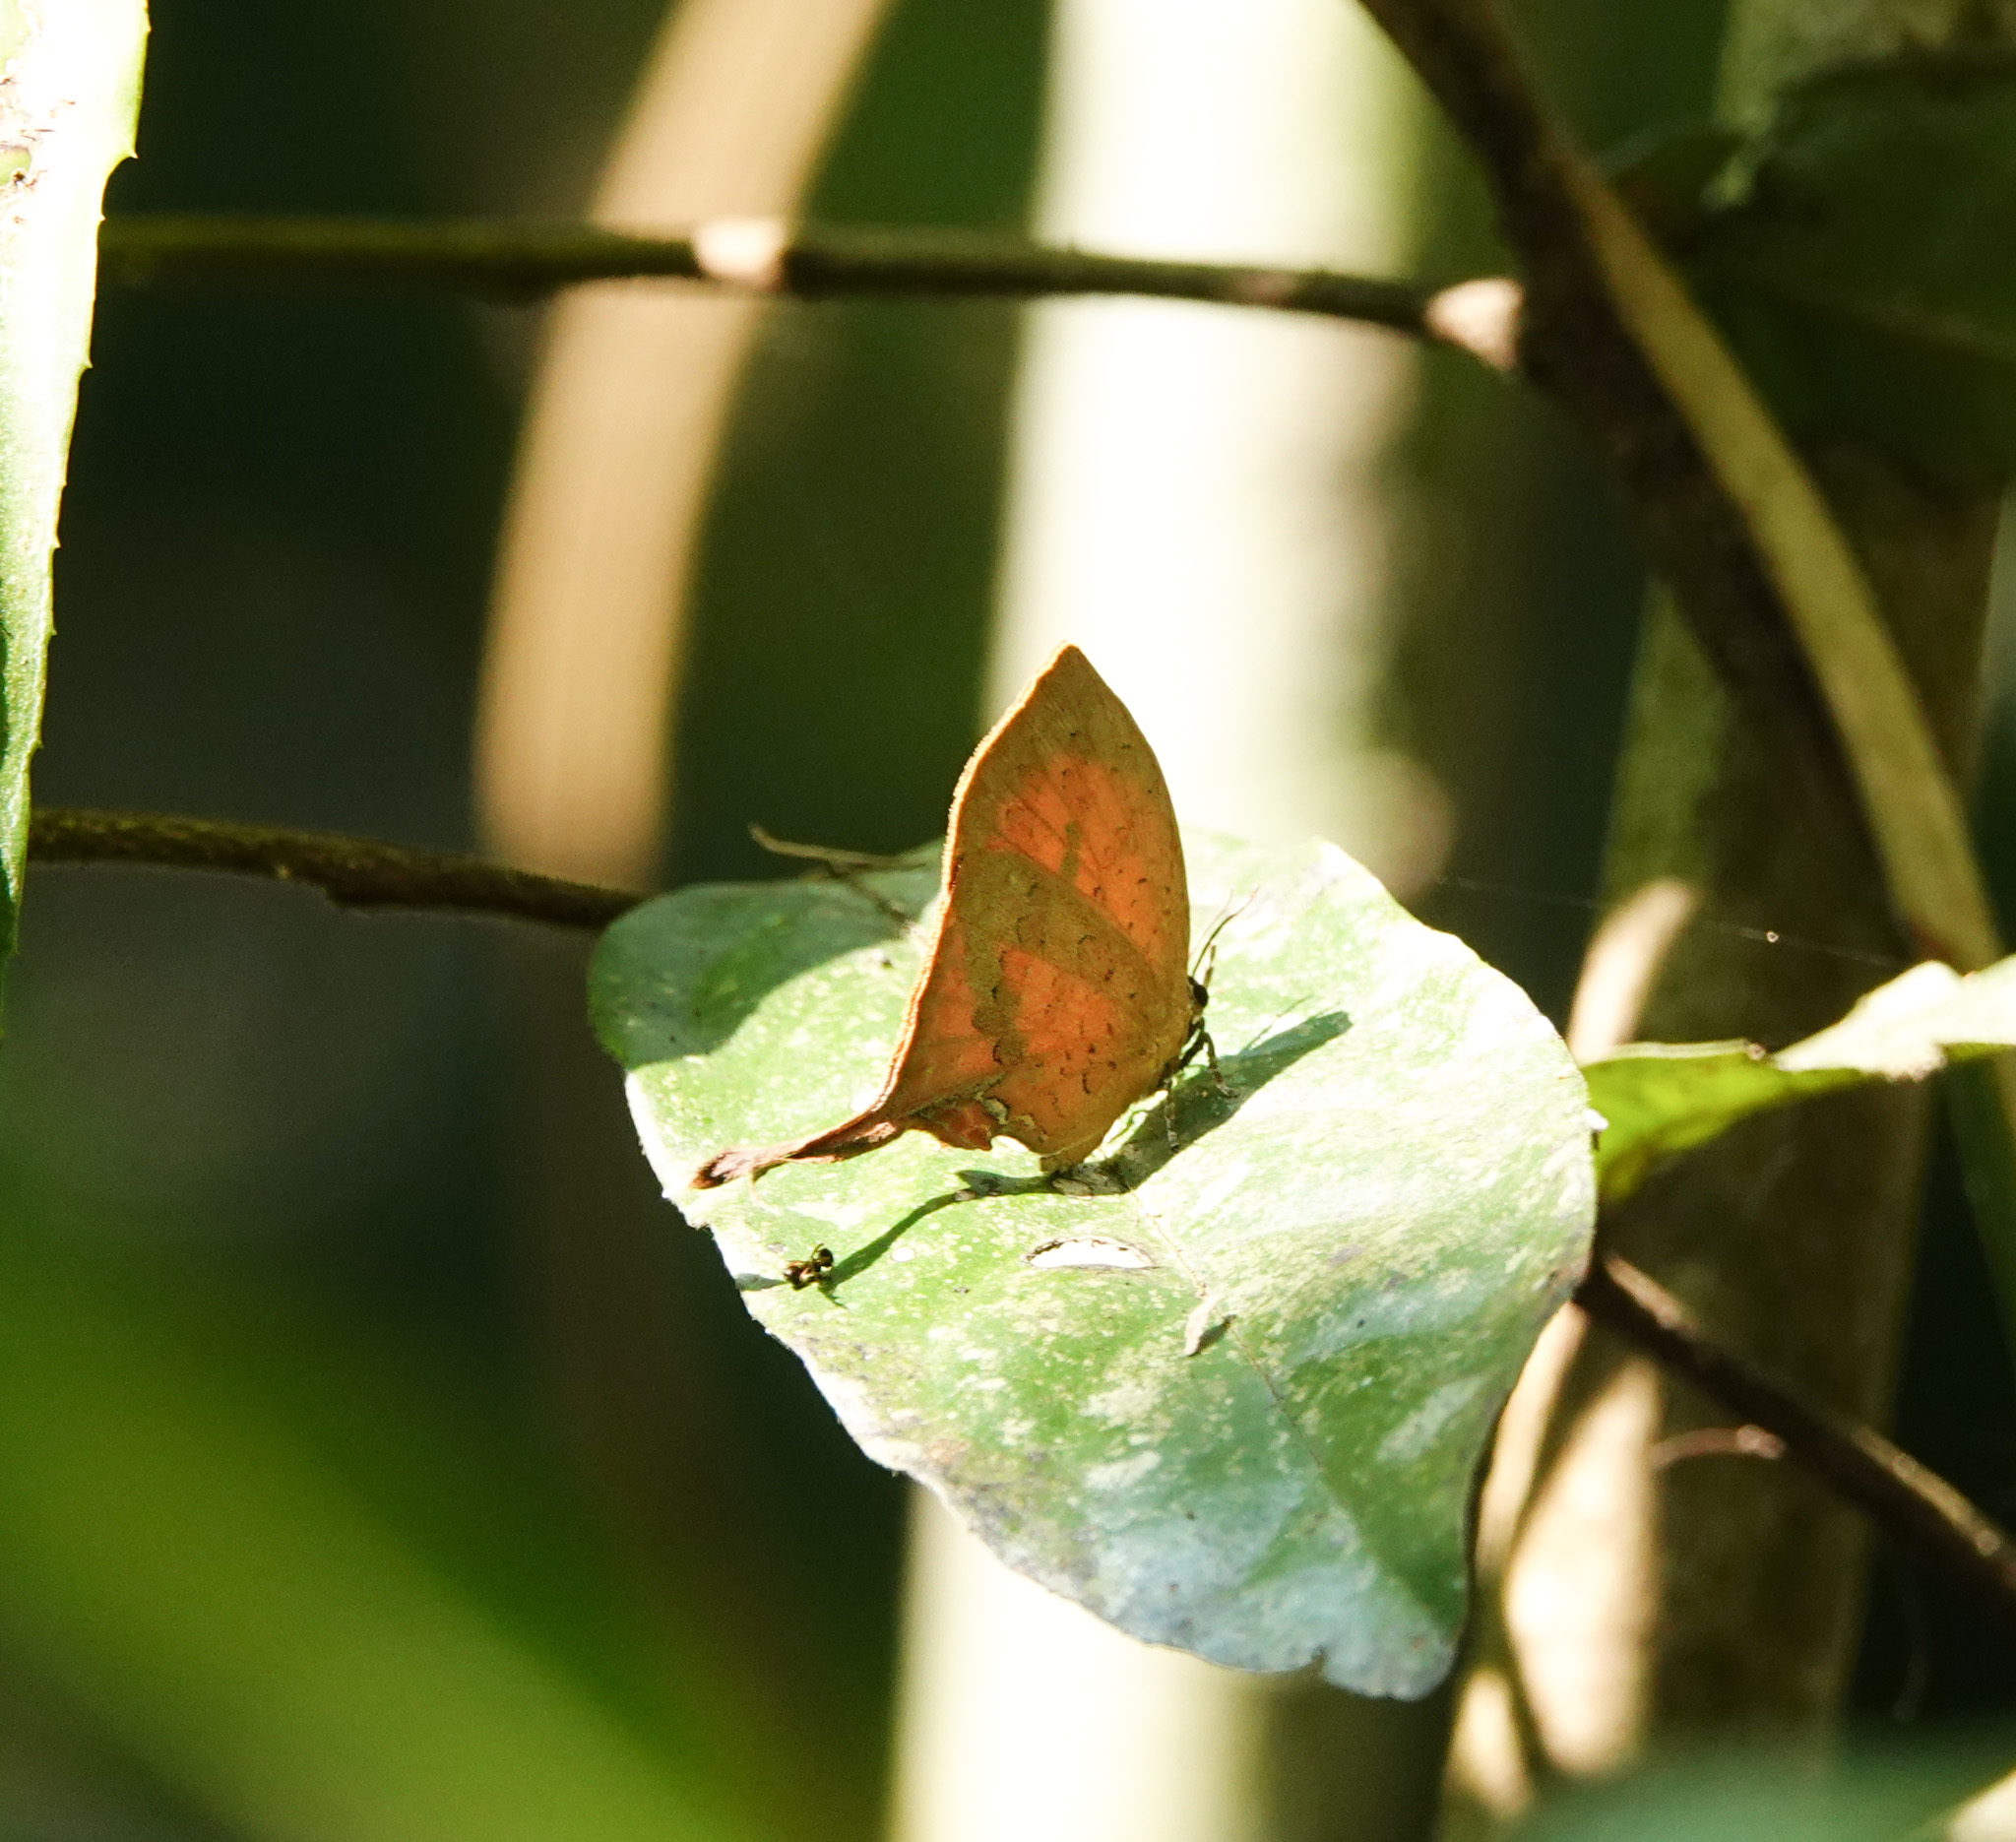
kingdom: Animalia
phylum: Arthropoda
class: Insecta
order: Lepidoptera
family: Lycaenidae
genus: Yasoda
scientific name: Yasoda tripunctata
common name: Branded yamfly
